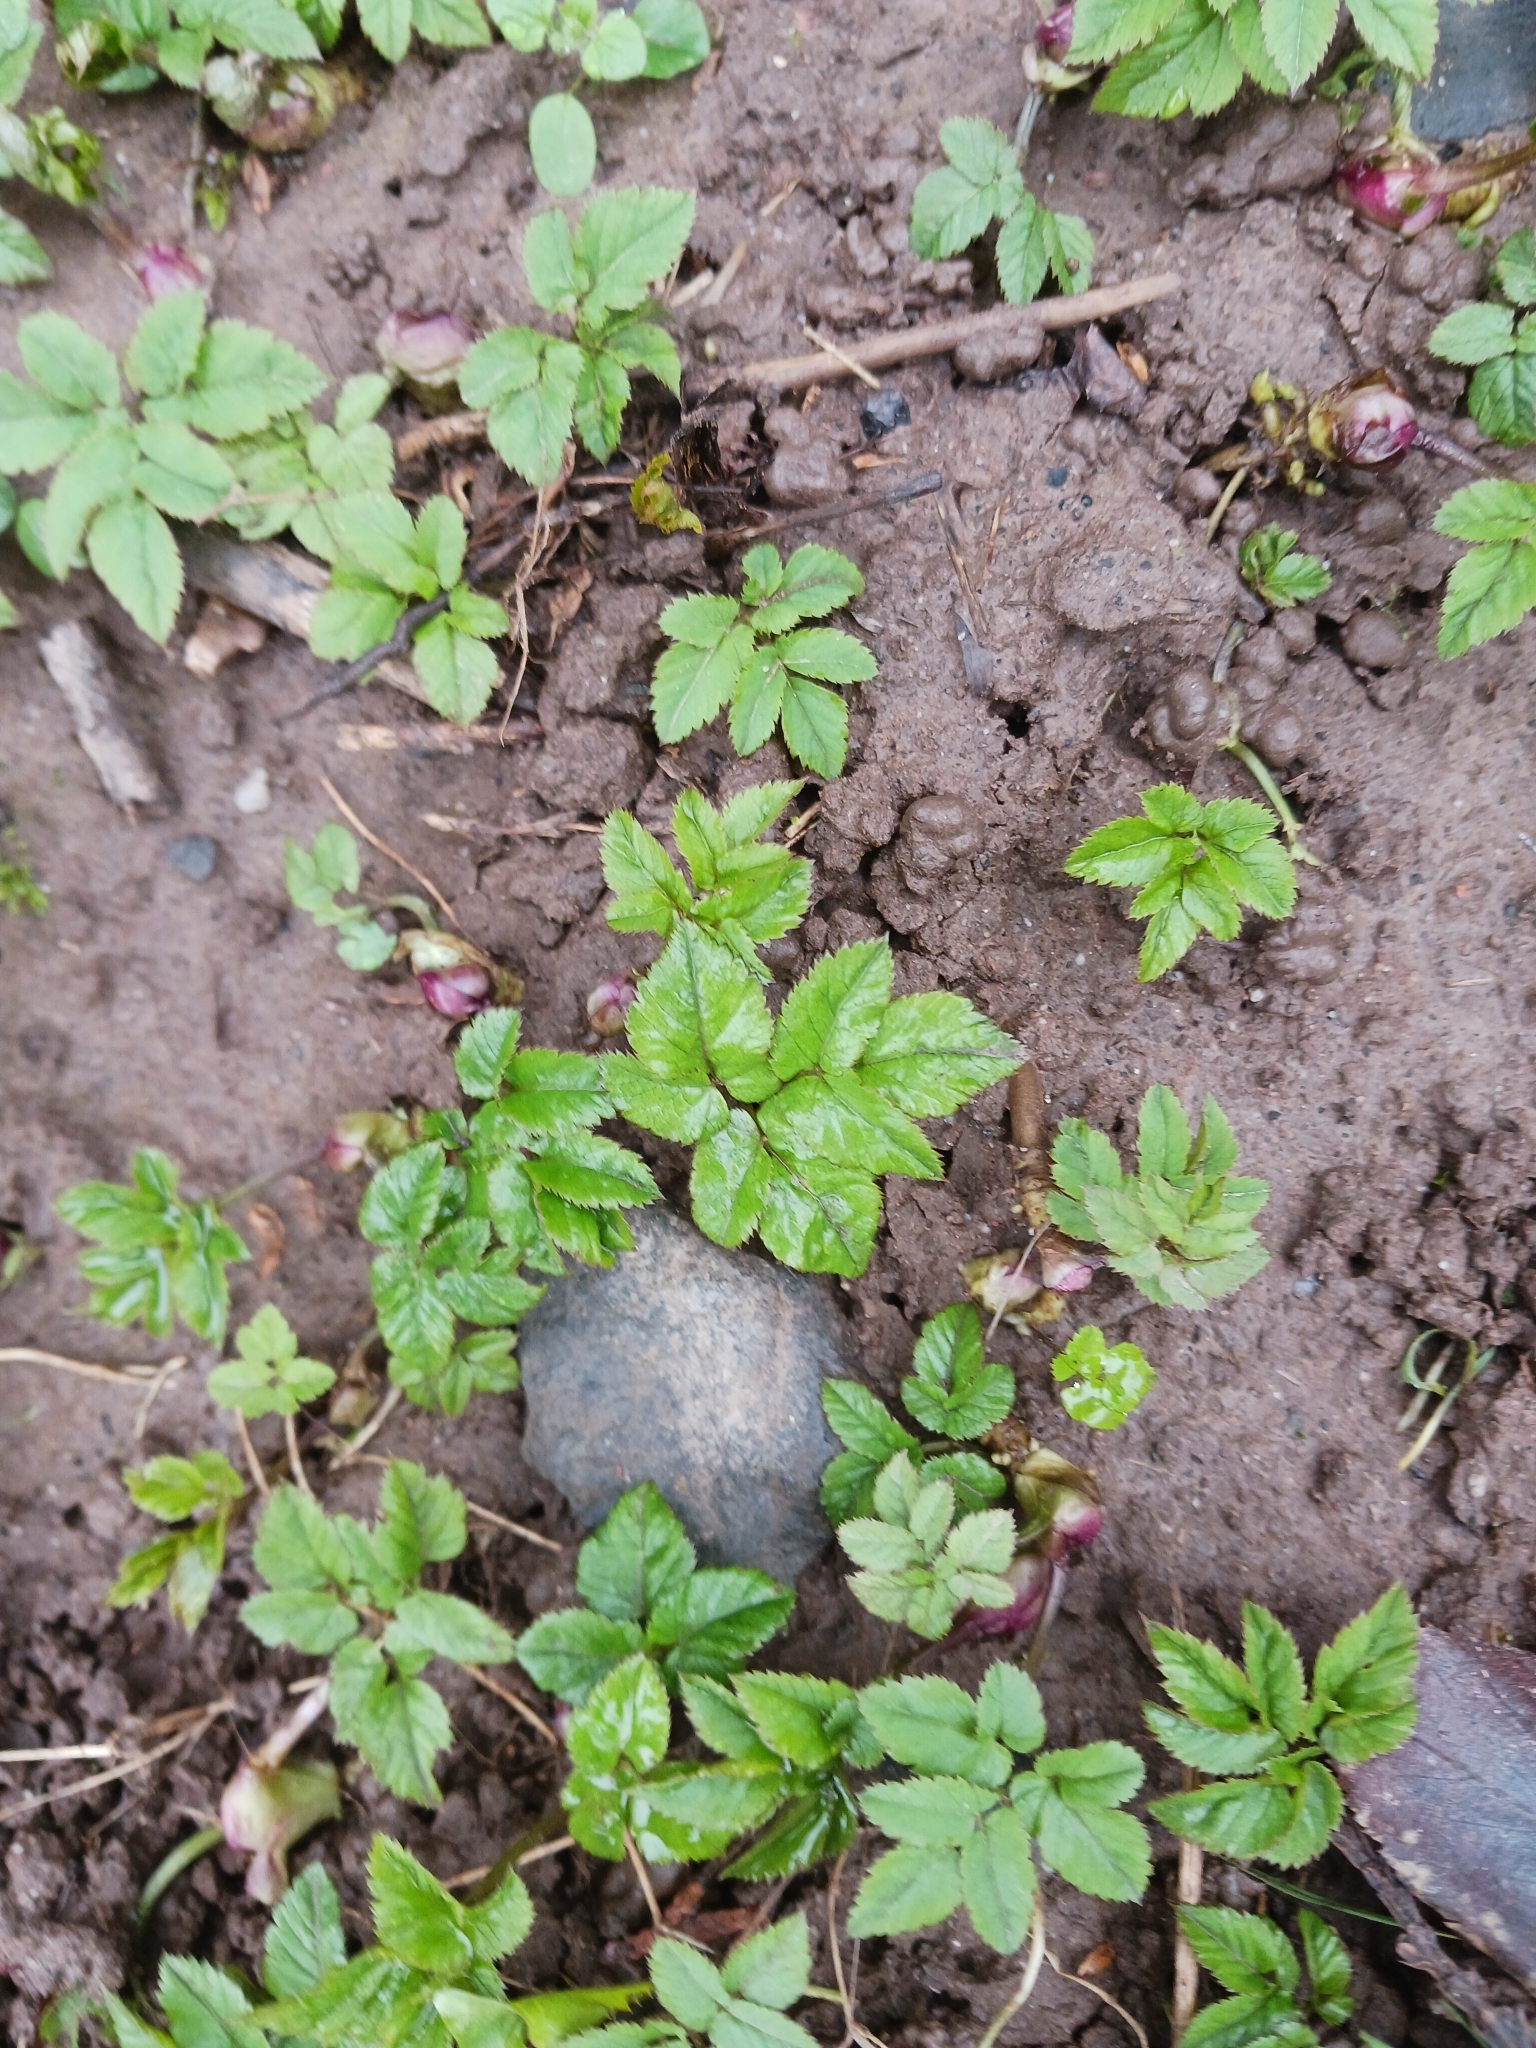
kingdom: Plantae
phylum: Tracheophyta
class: Magnoliopsida
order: Apiales
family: Apiaceae
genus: Aegopodium
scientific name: Aegopodium podagraria
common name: Ground-elder
